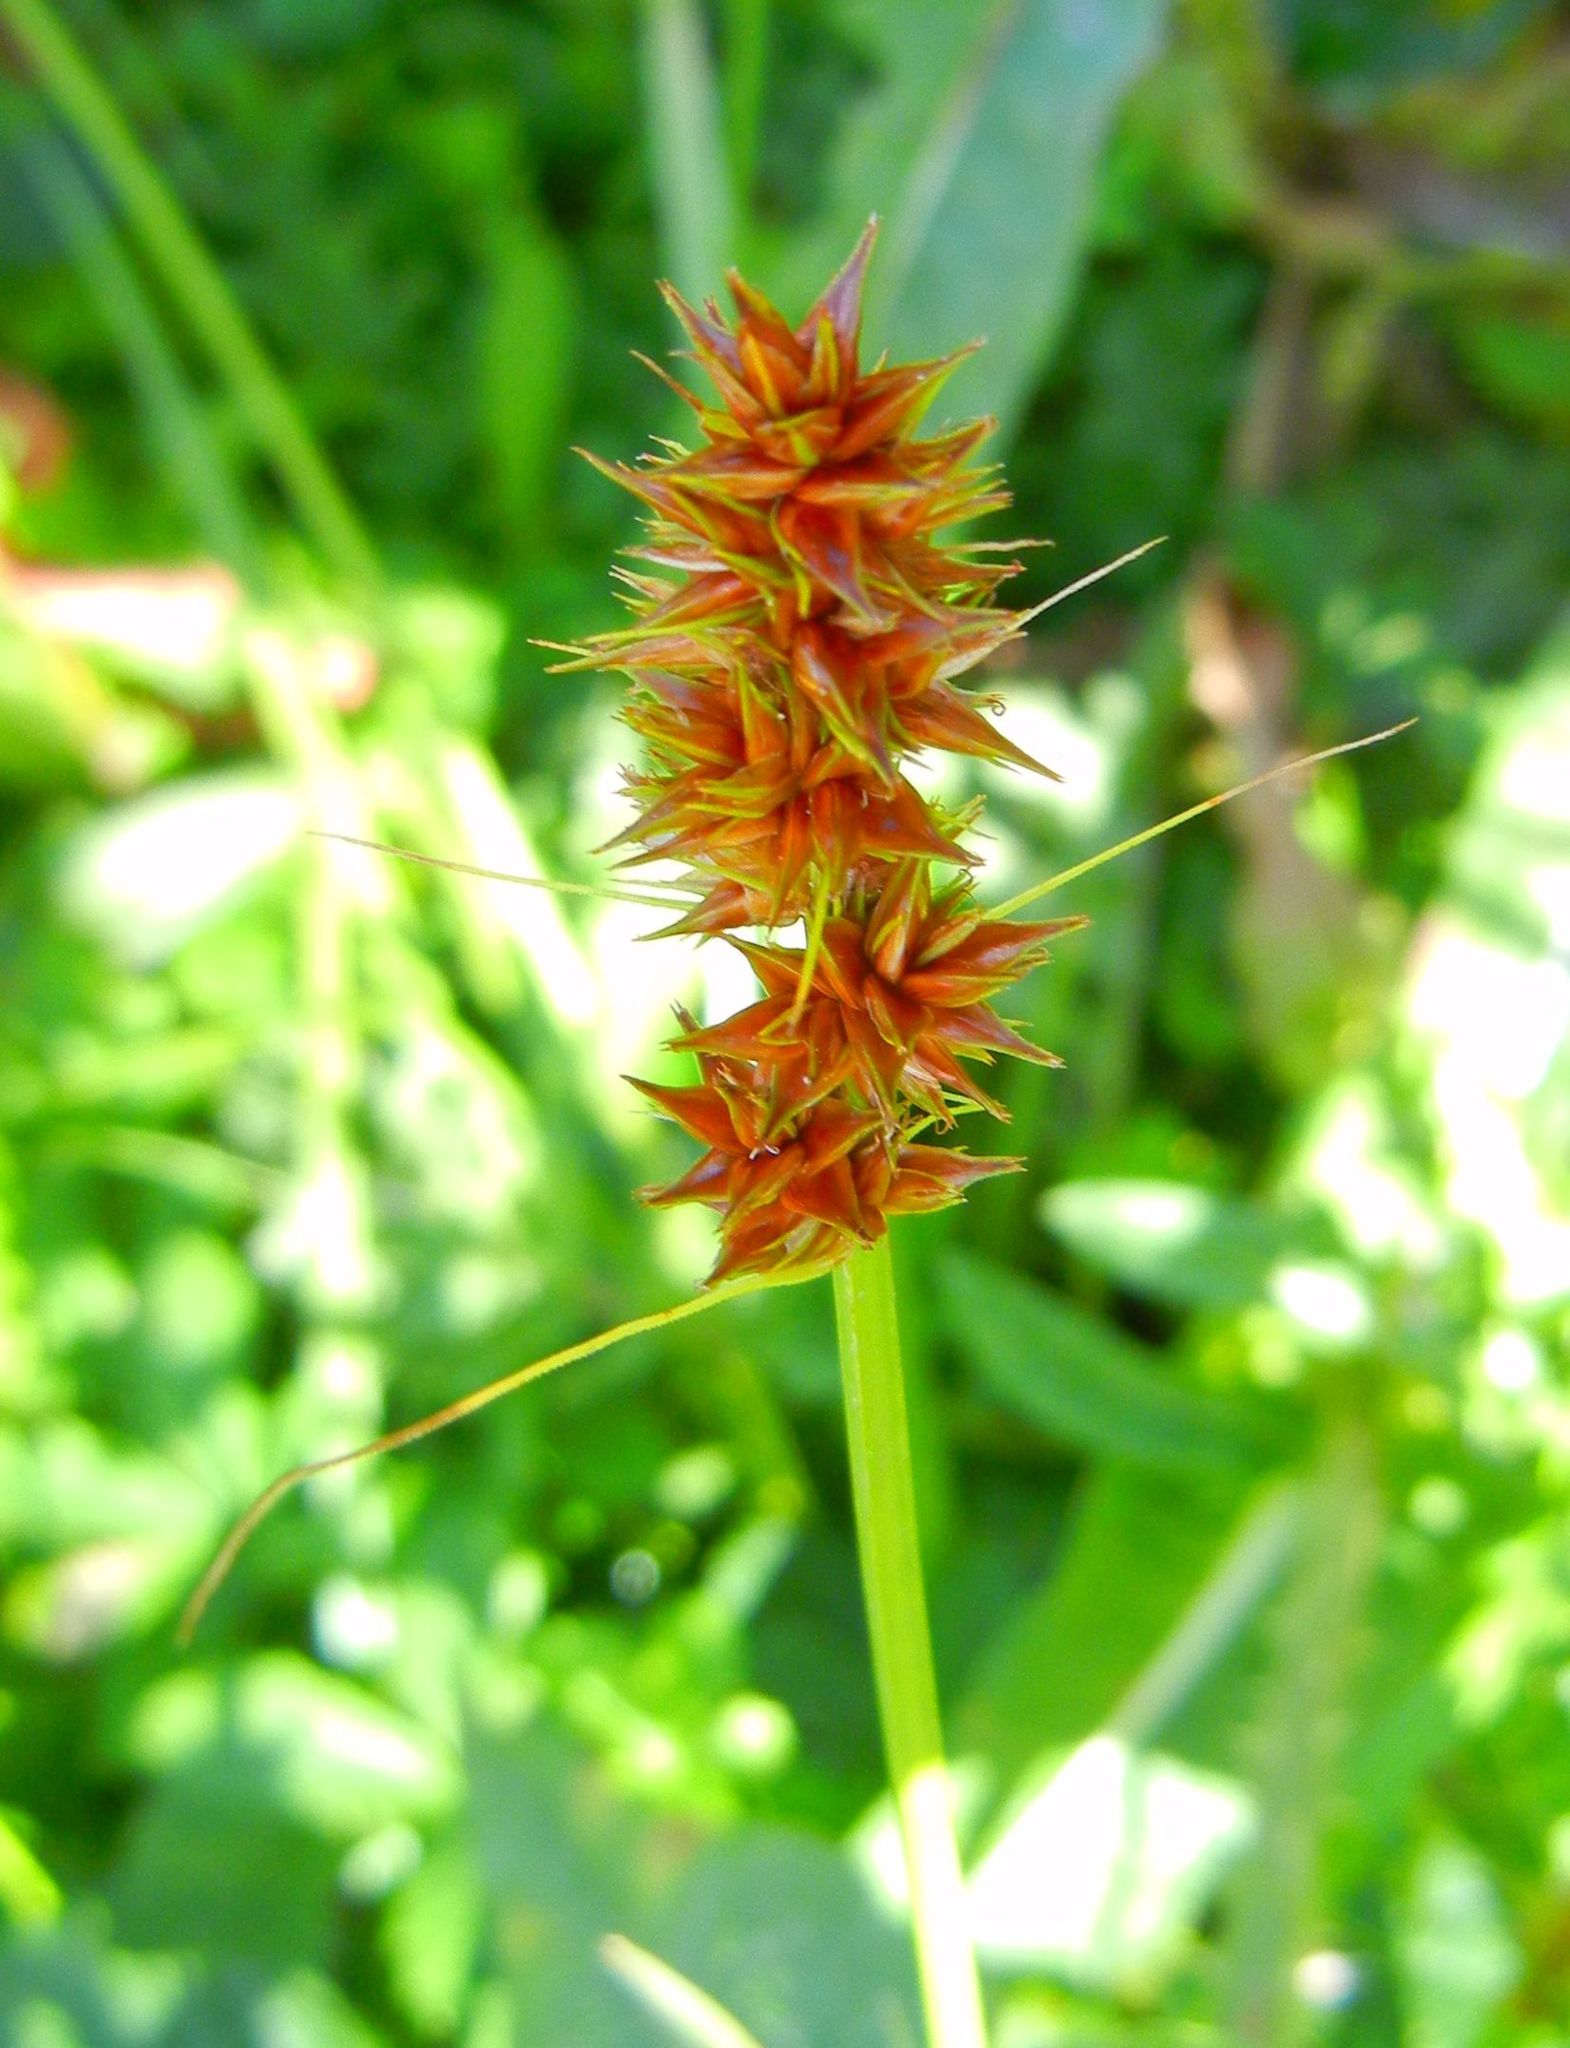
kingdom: Plantae
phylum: Tracheophyta
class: Liliopsida
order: Poales
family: Cyperaceae
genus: Carex
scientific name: Carex otrubae
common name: False fox-sedge
